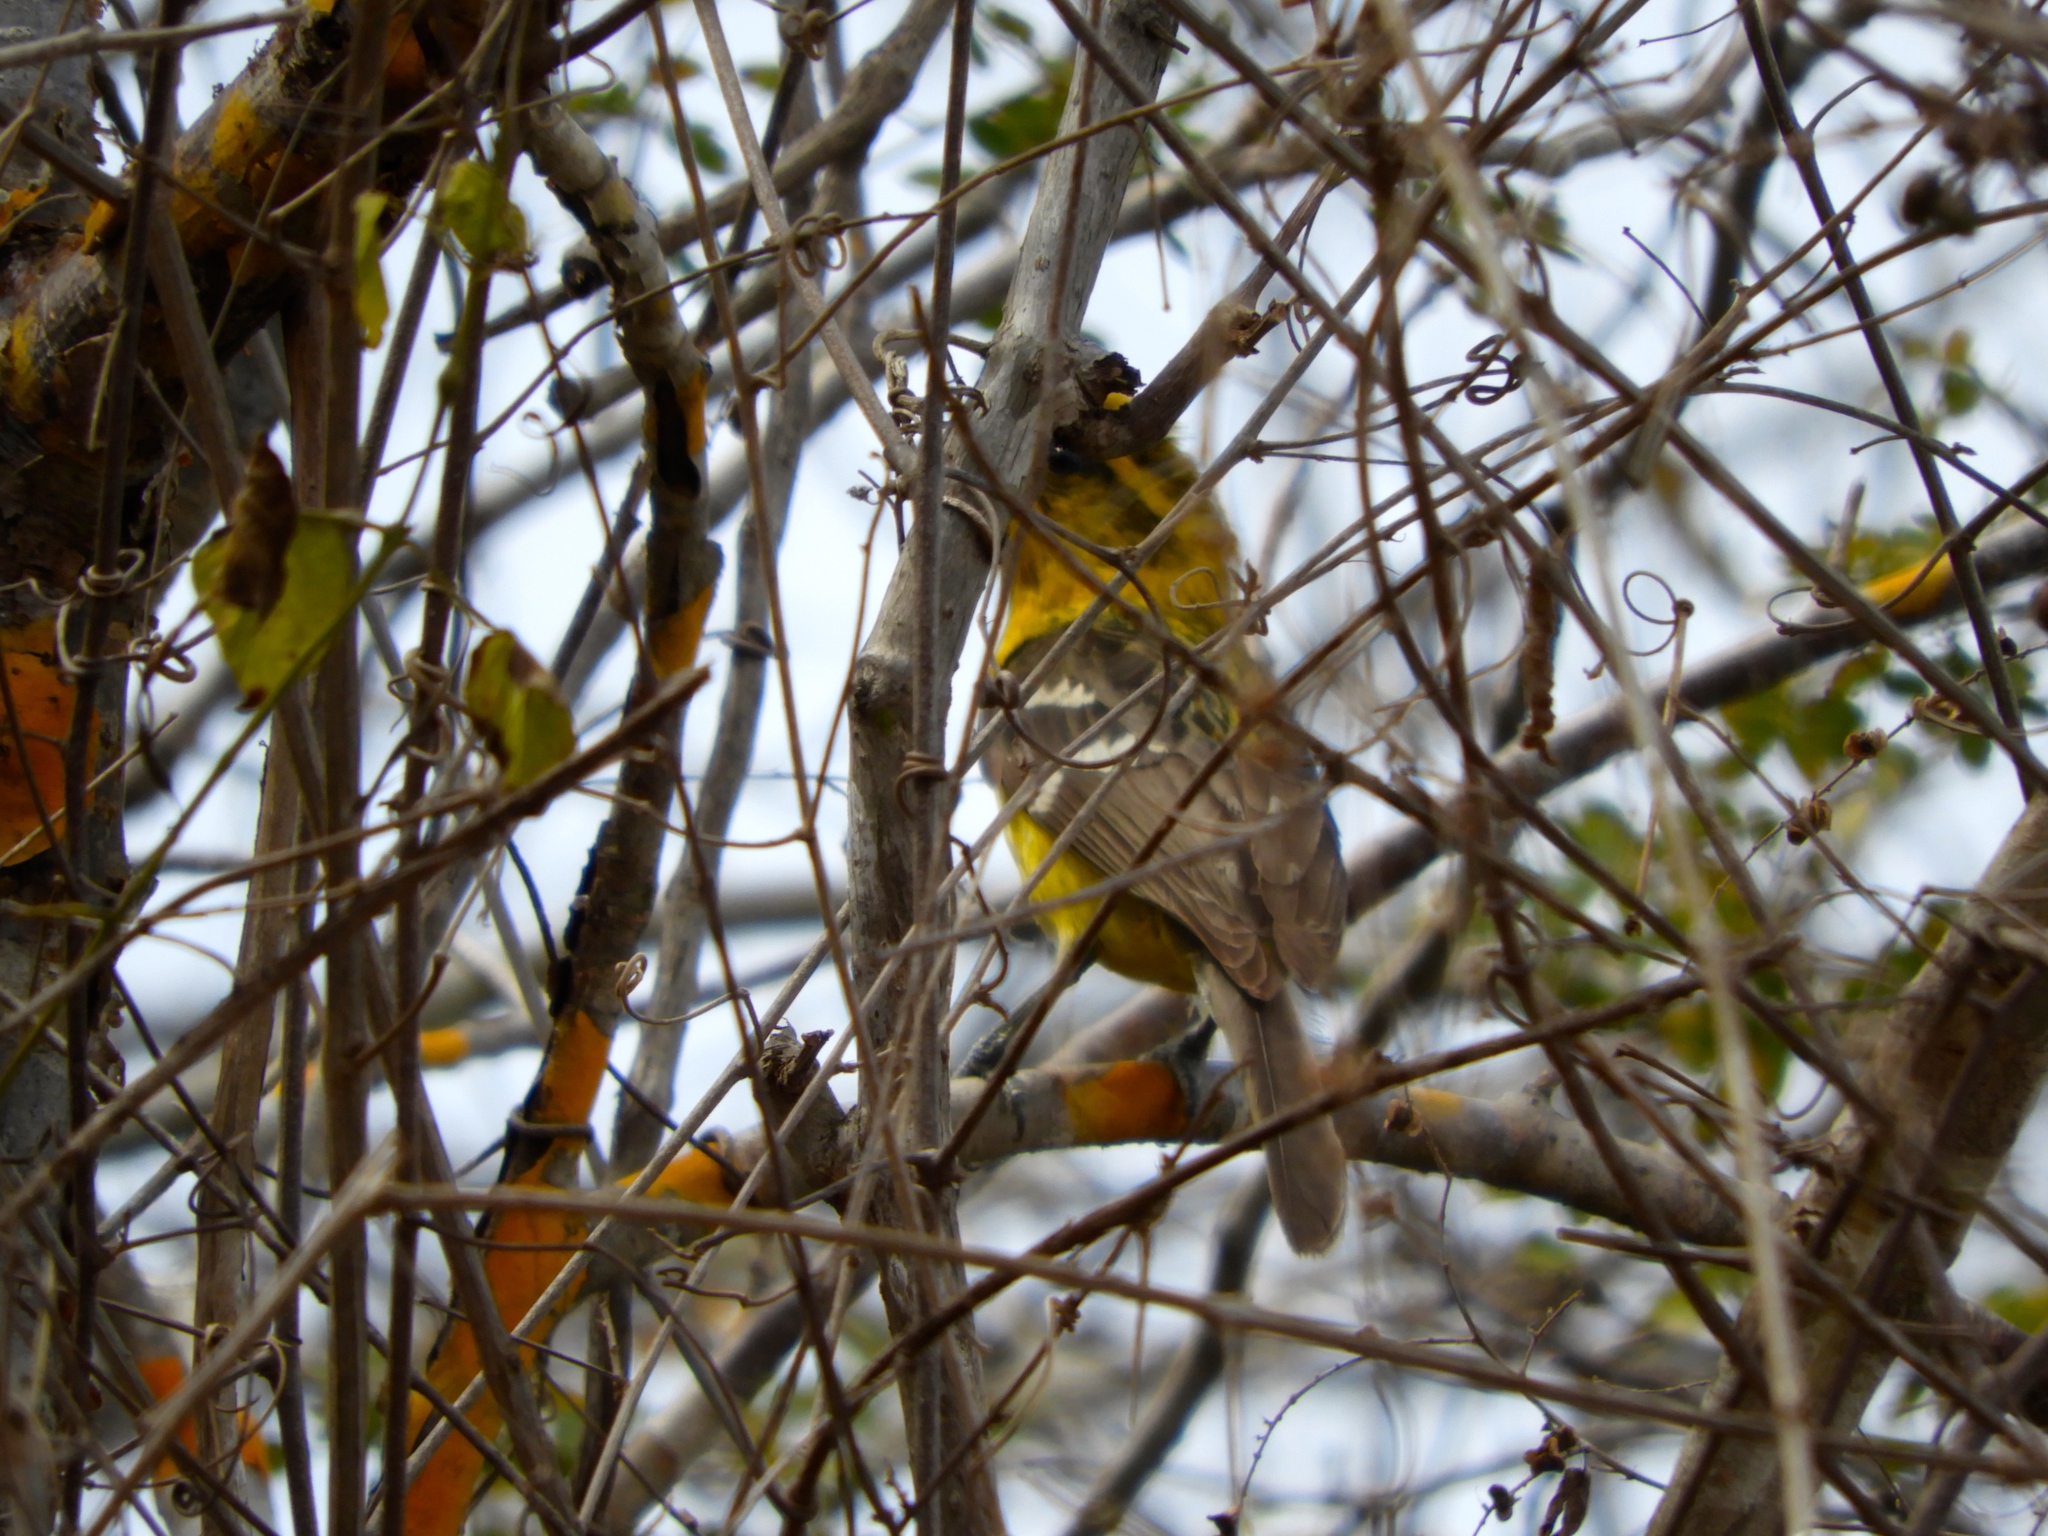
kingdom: Animalia
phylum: Chordata
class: Aves
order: Passeriformes
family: Cardinalidae
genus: Pheucticus
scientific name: Pheucticus chrysopeplus
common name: Yellow grosbeak
